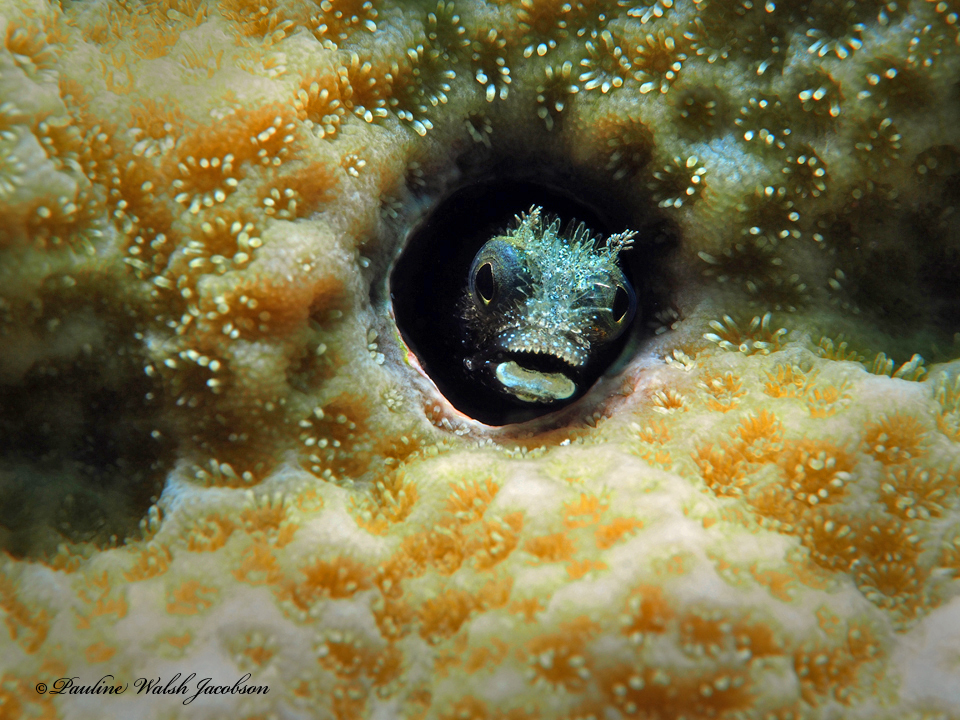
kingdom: Animalia
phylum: Chordata
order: Perciformes
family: Chaenopsidae
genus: Acanthemblemaria
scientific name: Acanthemblemaria spinosa
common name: Spinyhead blenny
